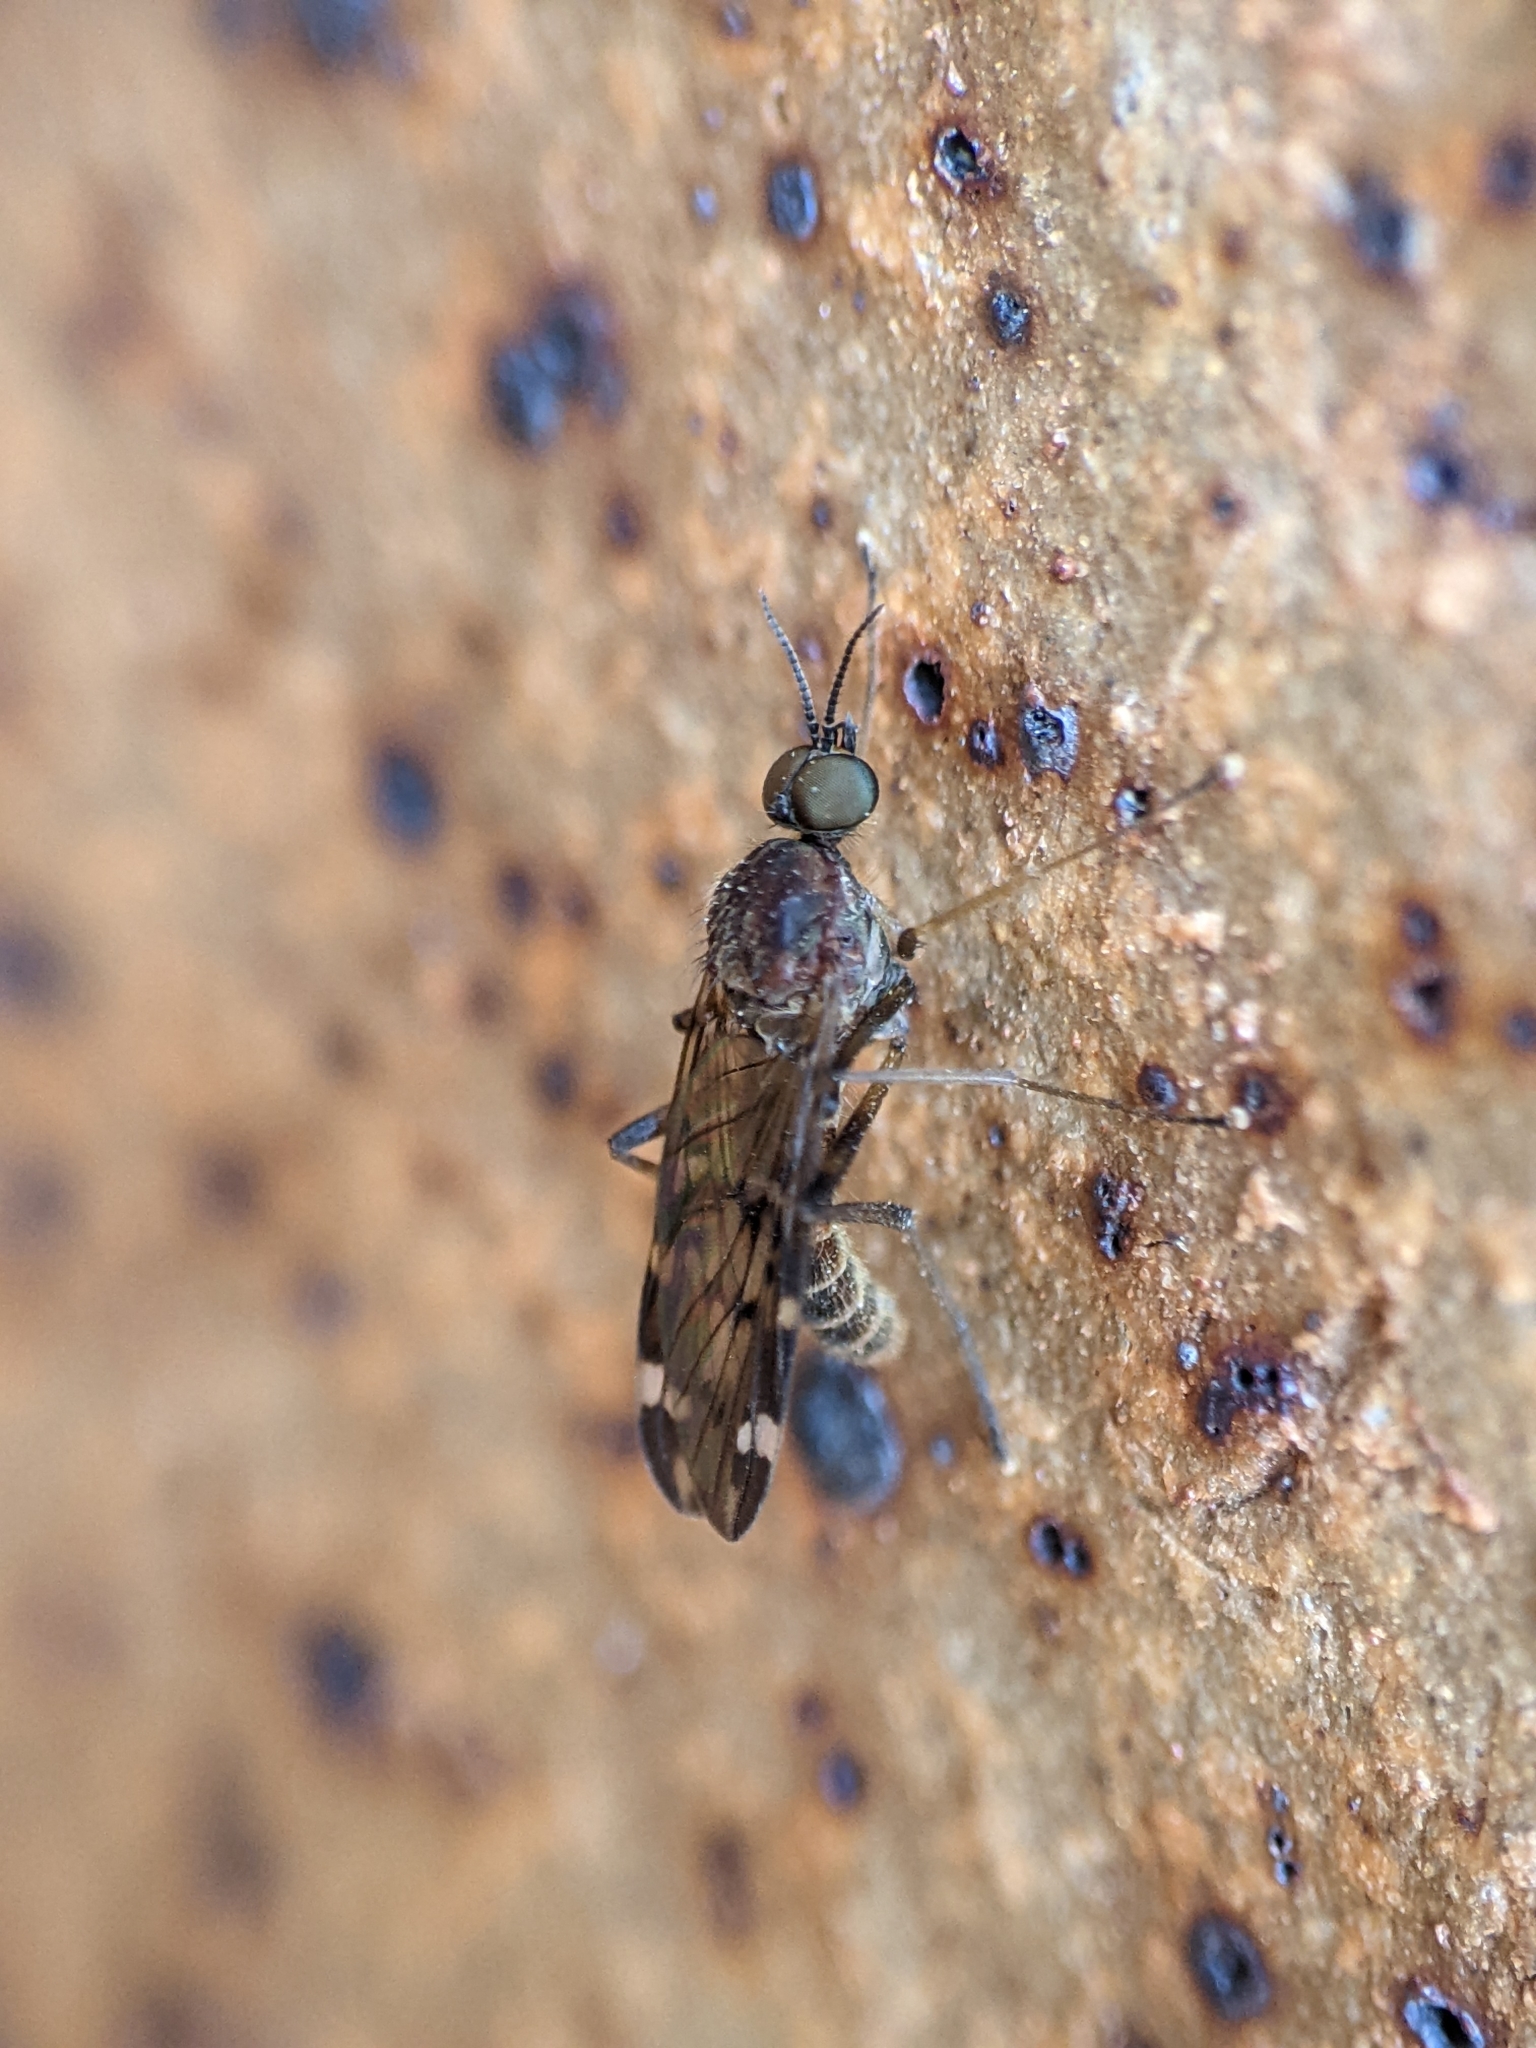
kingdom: Animalia
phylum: Arthropoda
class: Insecta
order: Diptera
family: Anisopodidae
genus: Sylvicola
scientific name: Sylvicola alternata
